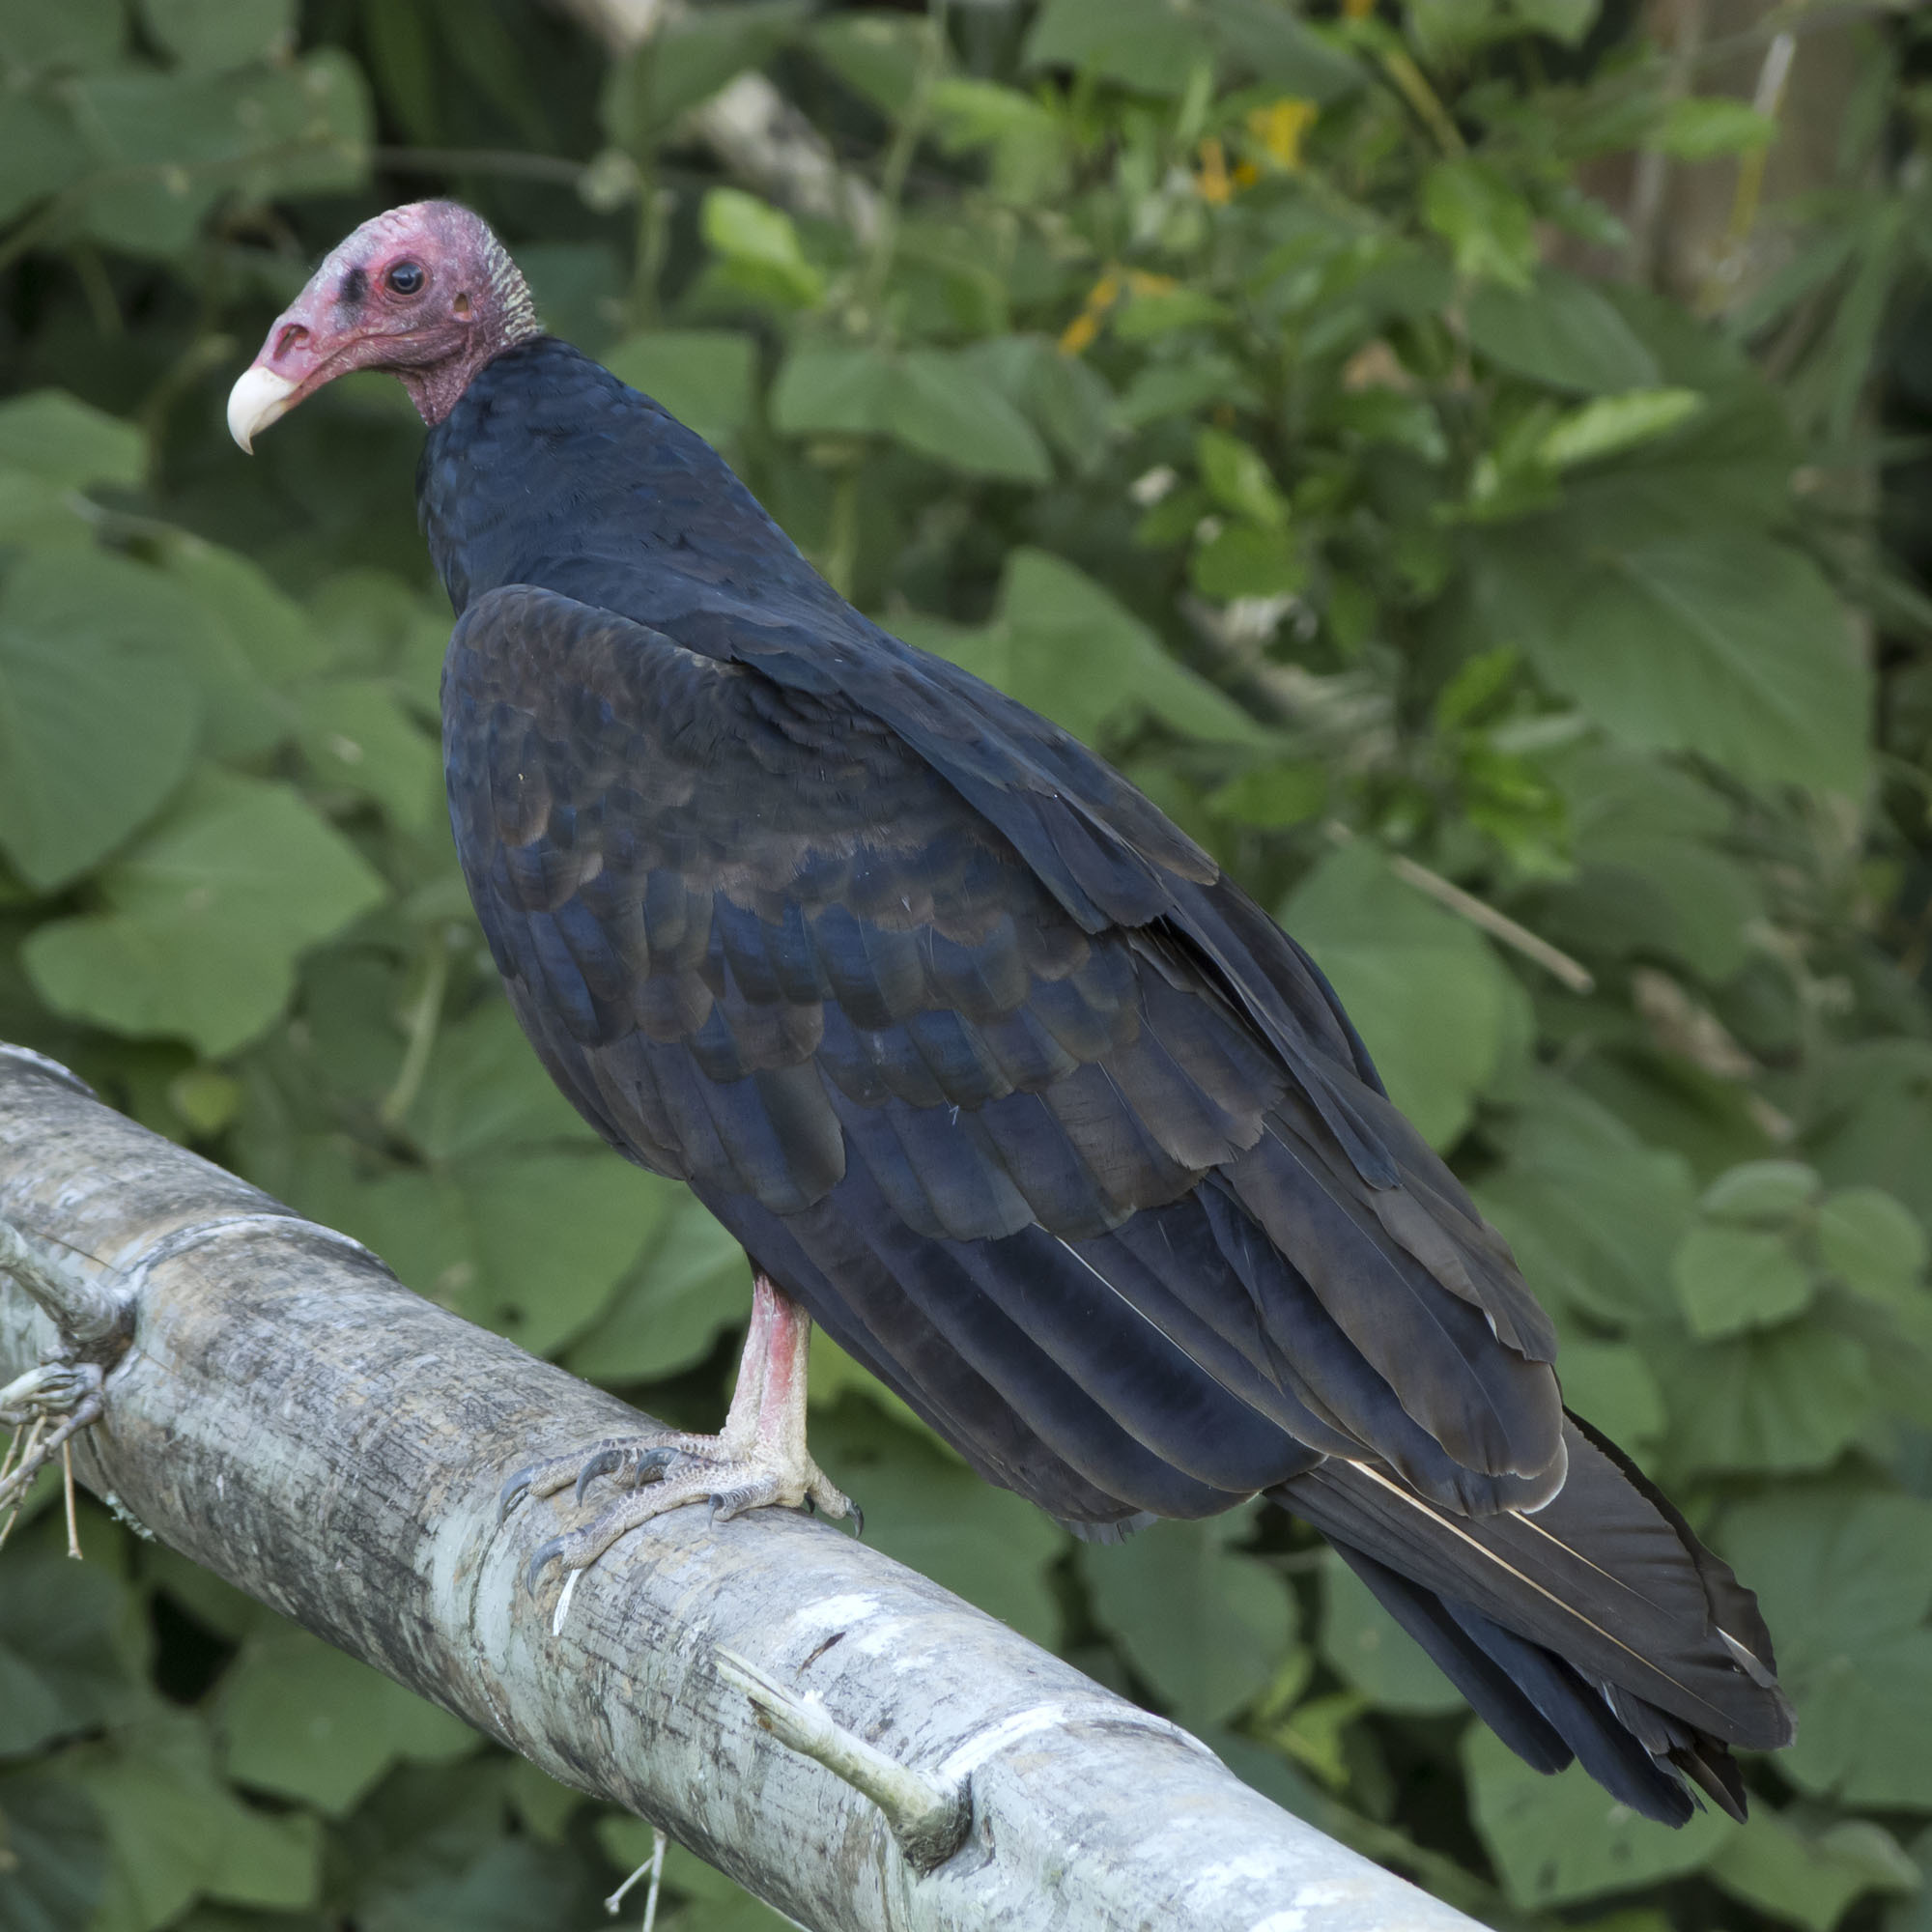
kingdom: Animalia
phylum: Chordata
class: Aves
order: Accipitriformes
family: Cathartidae
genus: Cathartes
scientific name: Cathartes aura
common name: Turkey vulture
